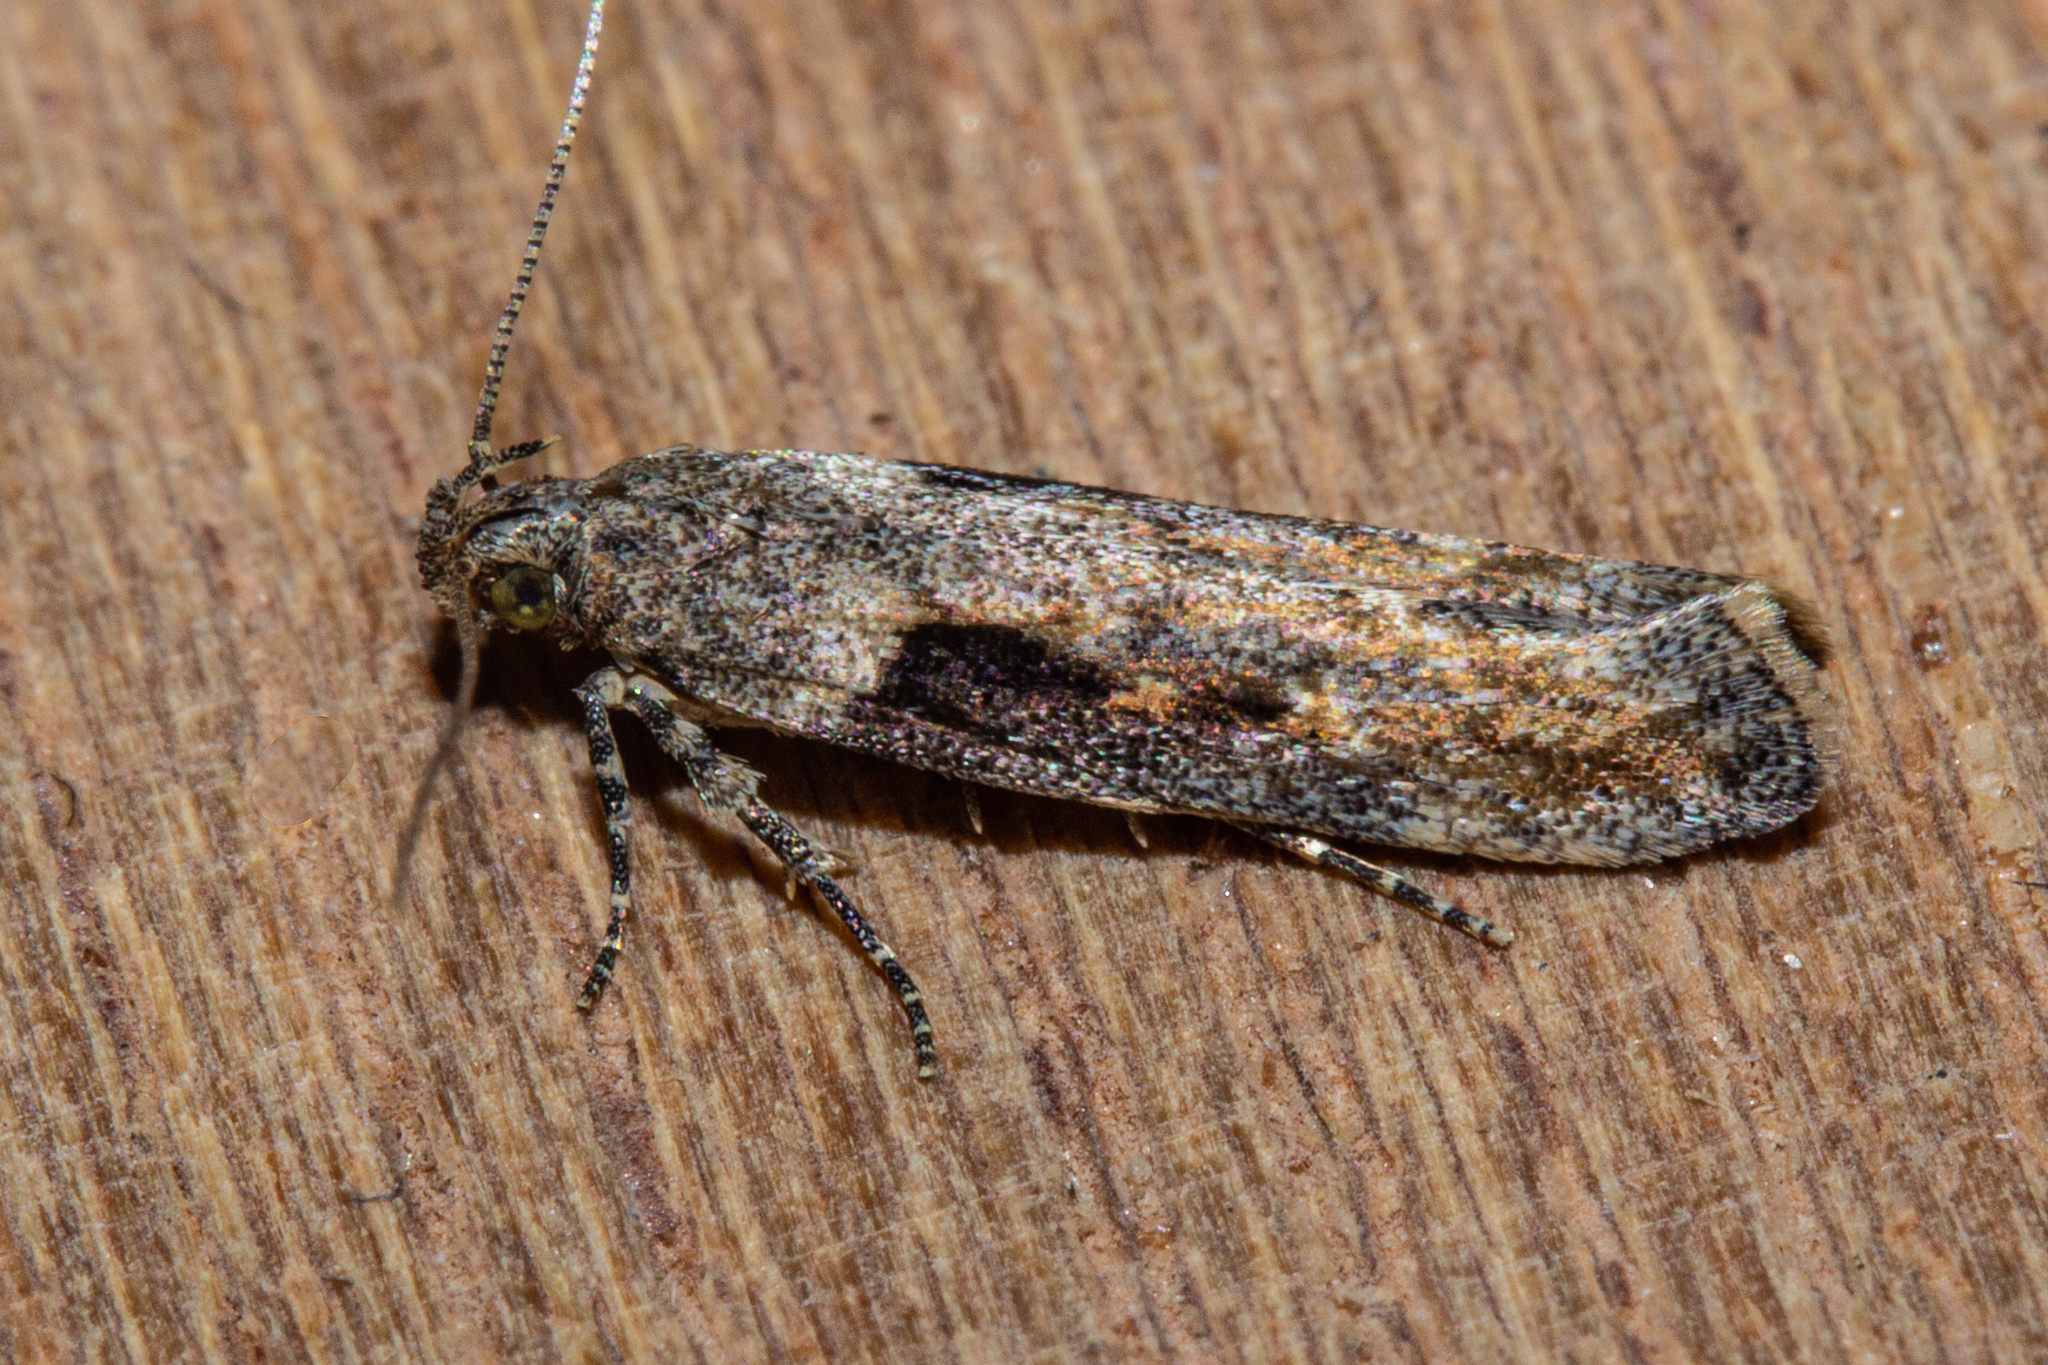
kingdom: Animalia
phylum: Arthropoda
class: Insecta
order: Lepidoptera
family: Gelechiidae
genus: Symmetrischema
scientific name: Symmetrischema tangolias
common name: Moth
